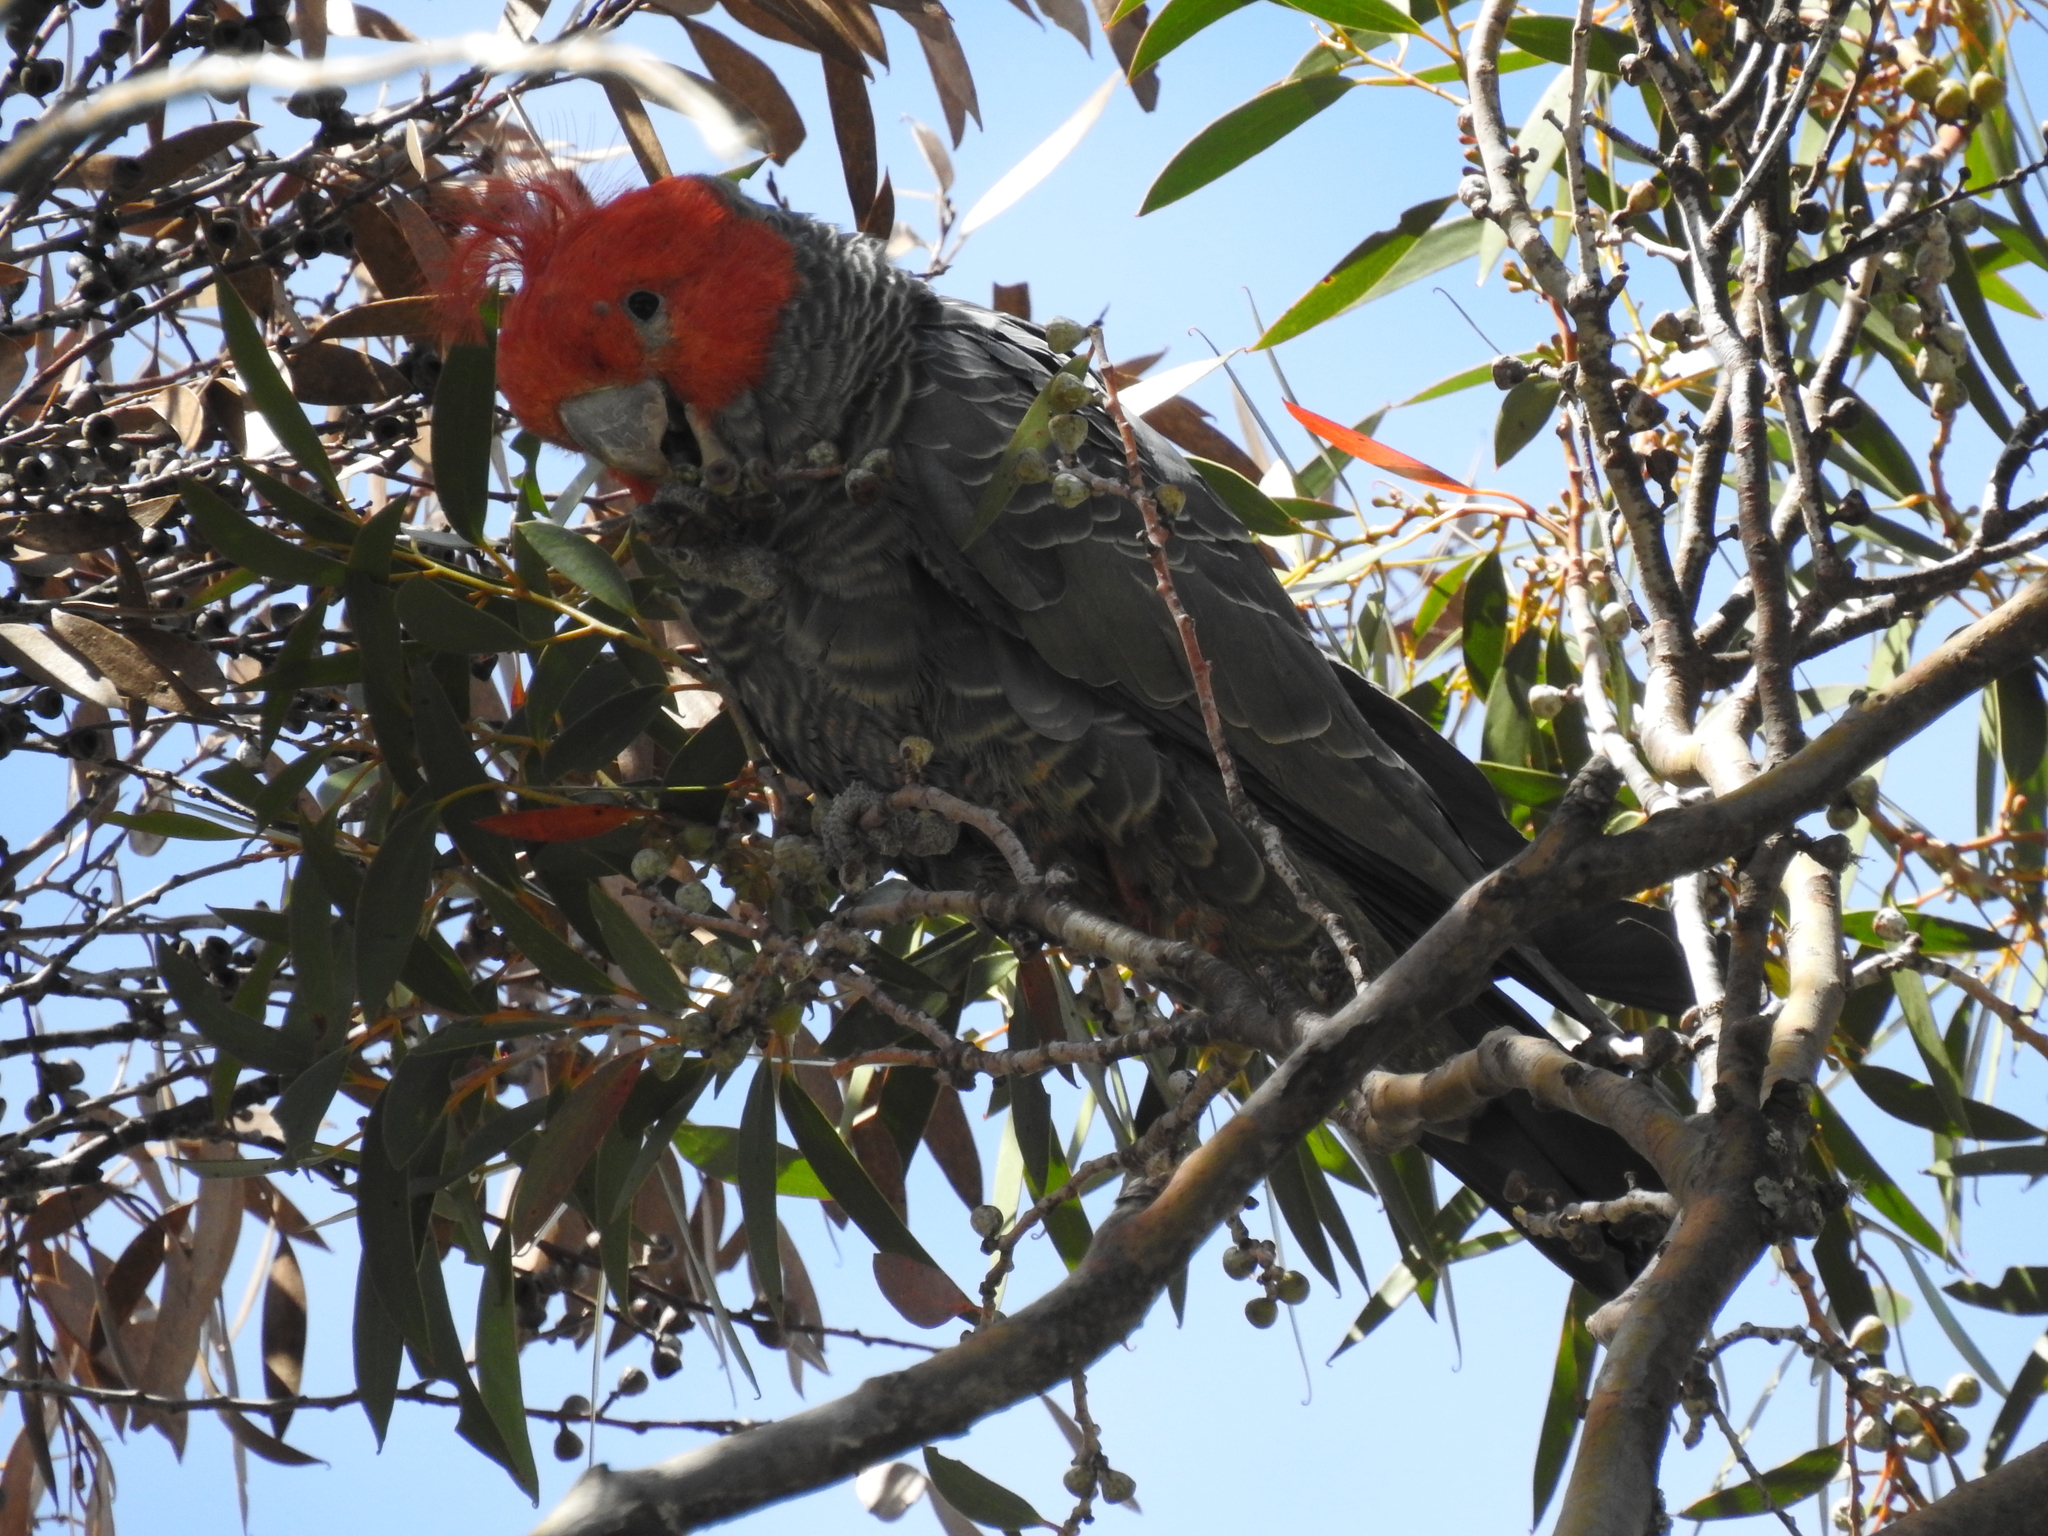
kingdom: Animalia
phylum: Chordata
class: Aves
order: Psittaciformes
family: Psittacidae
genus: Callocephalon
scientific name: Callocephalon fimbriatum
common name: Gang-gang cockatoo
